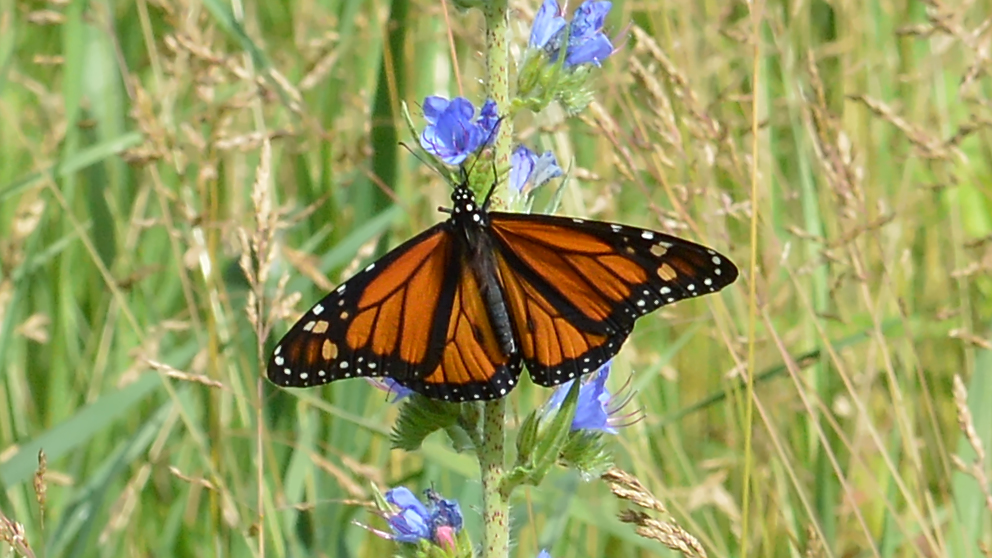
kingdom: Animalia
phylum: Arthropoda
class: Insecta
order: Lepidoptera
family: Nymphalidae
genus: Danaus
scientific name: Danaus plexippus
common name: Monarch
